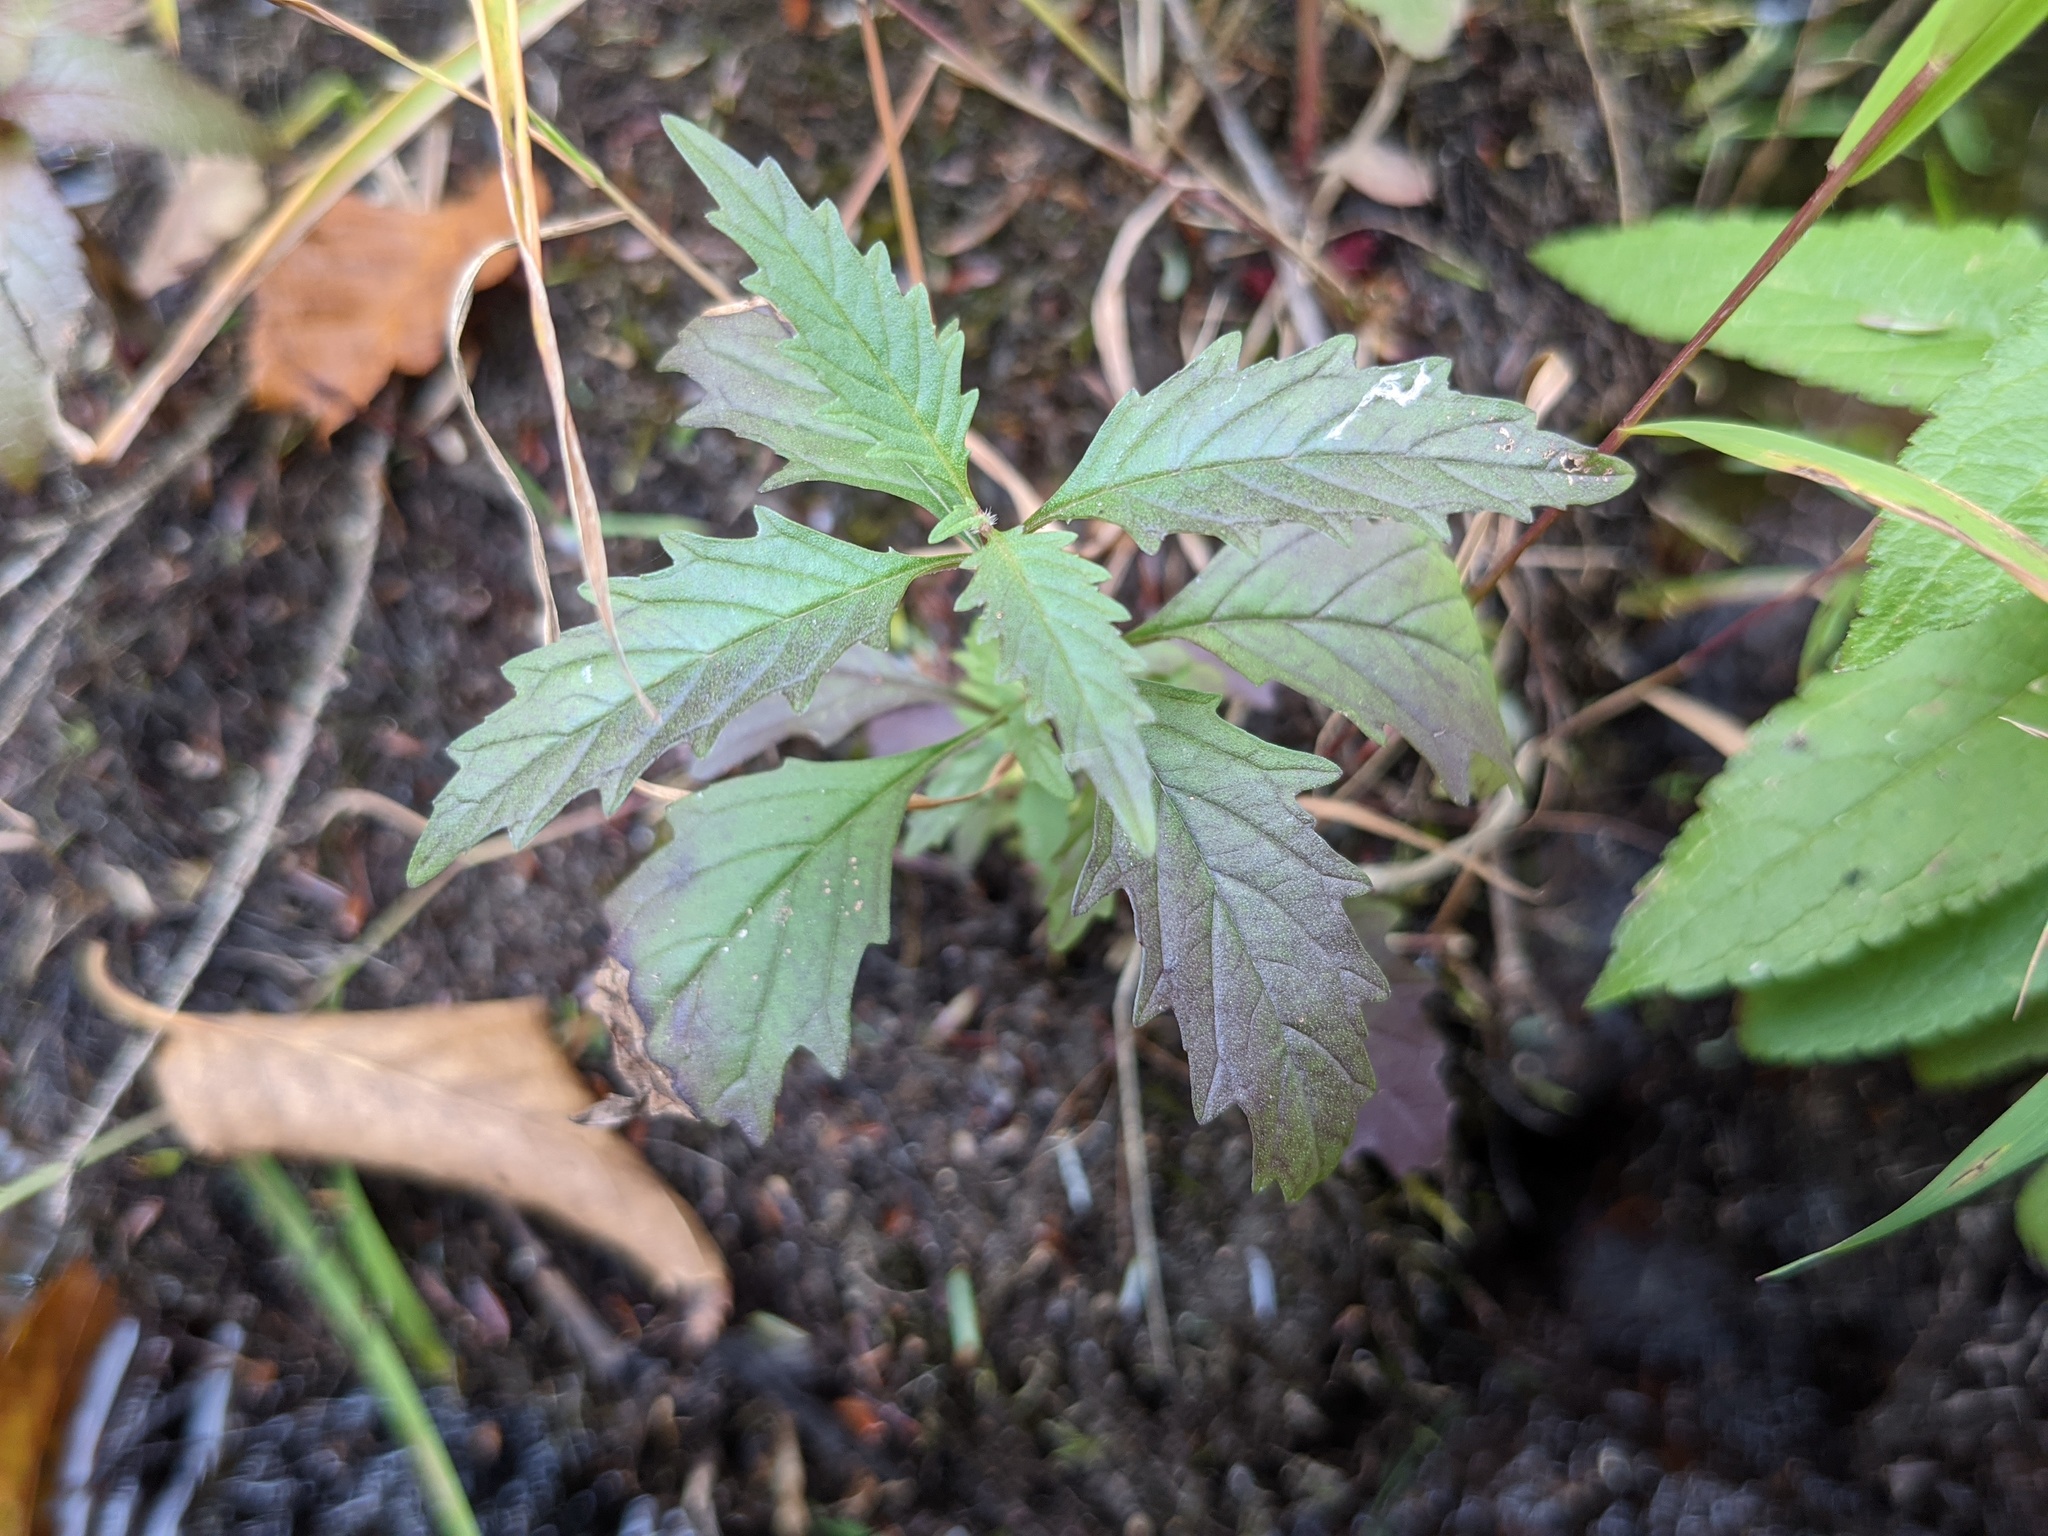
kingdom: Plantae
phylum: Tracheophyta
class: Magnoliopsida
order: Lamiales
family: Lamiaceae
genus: Lycopus
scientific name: Lycopus americanus
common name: American bugleweed
